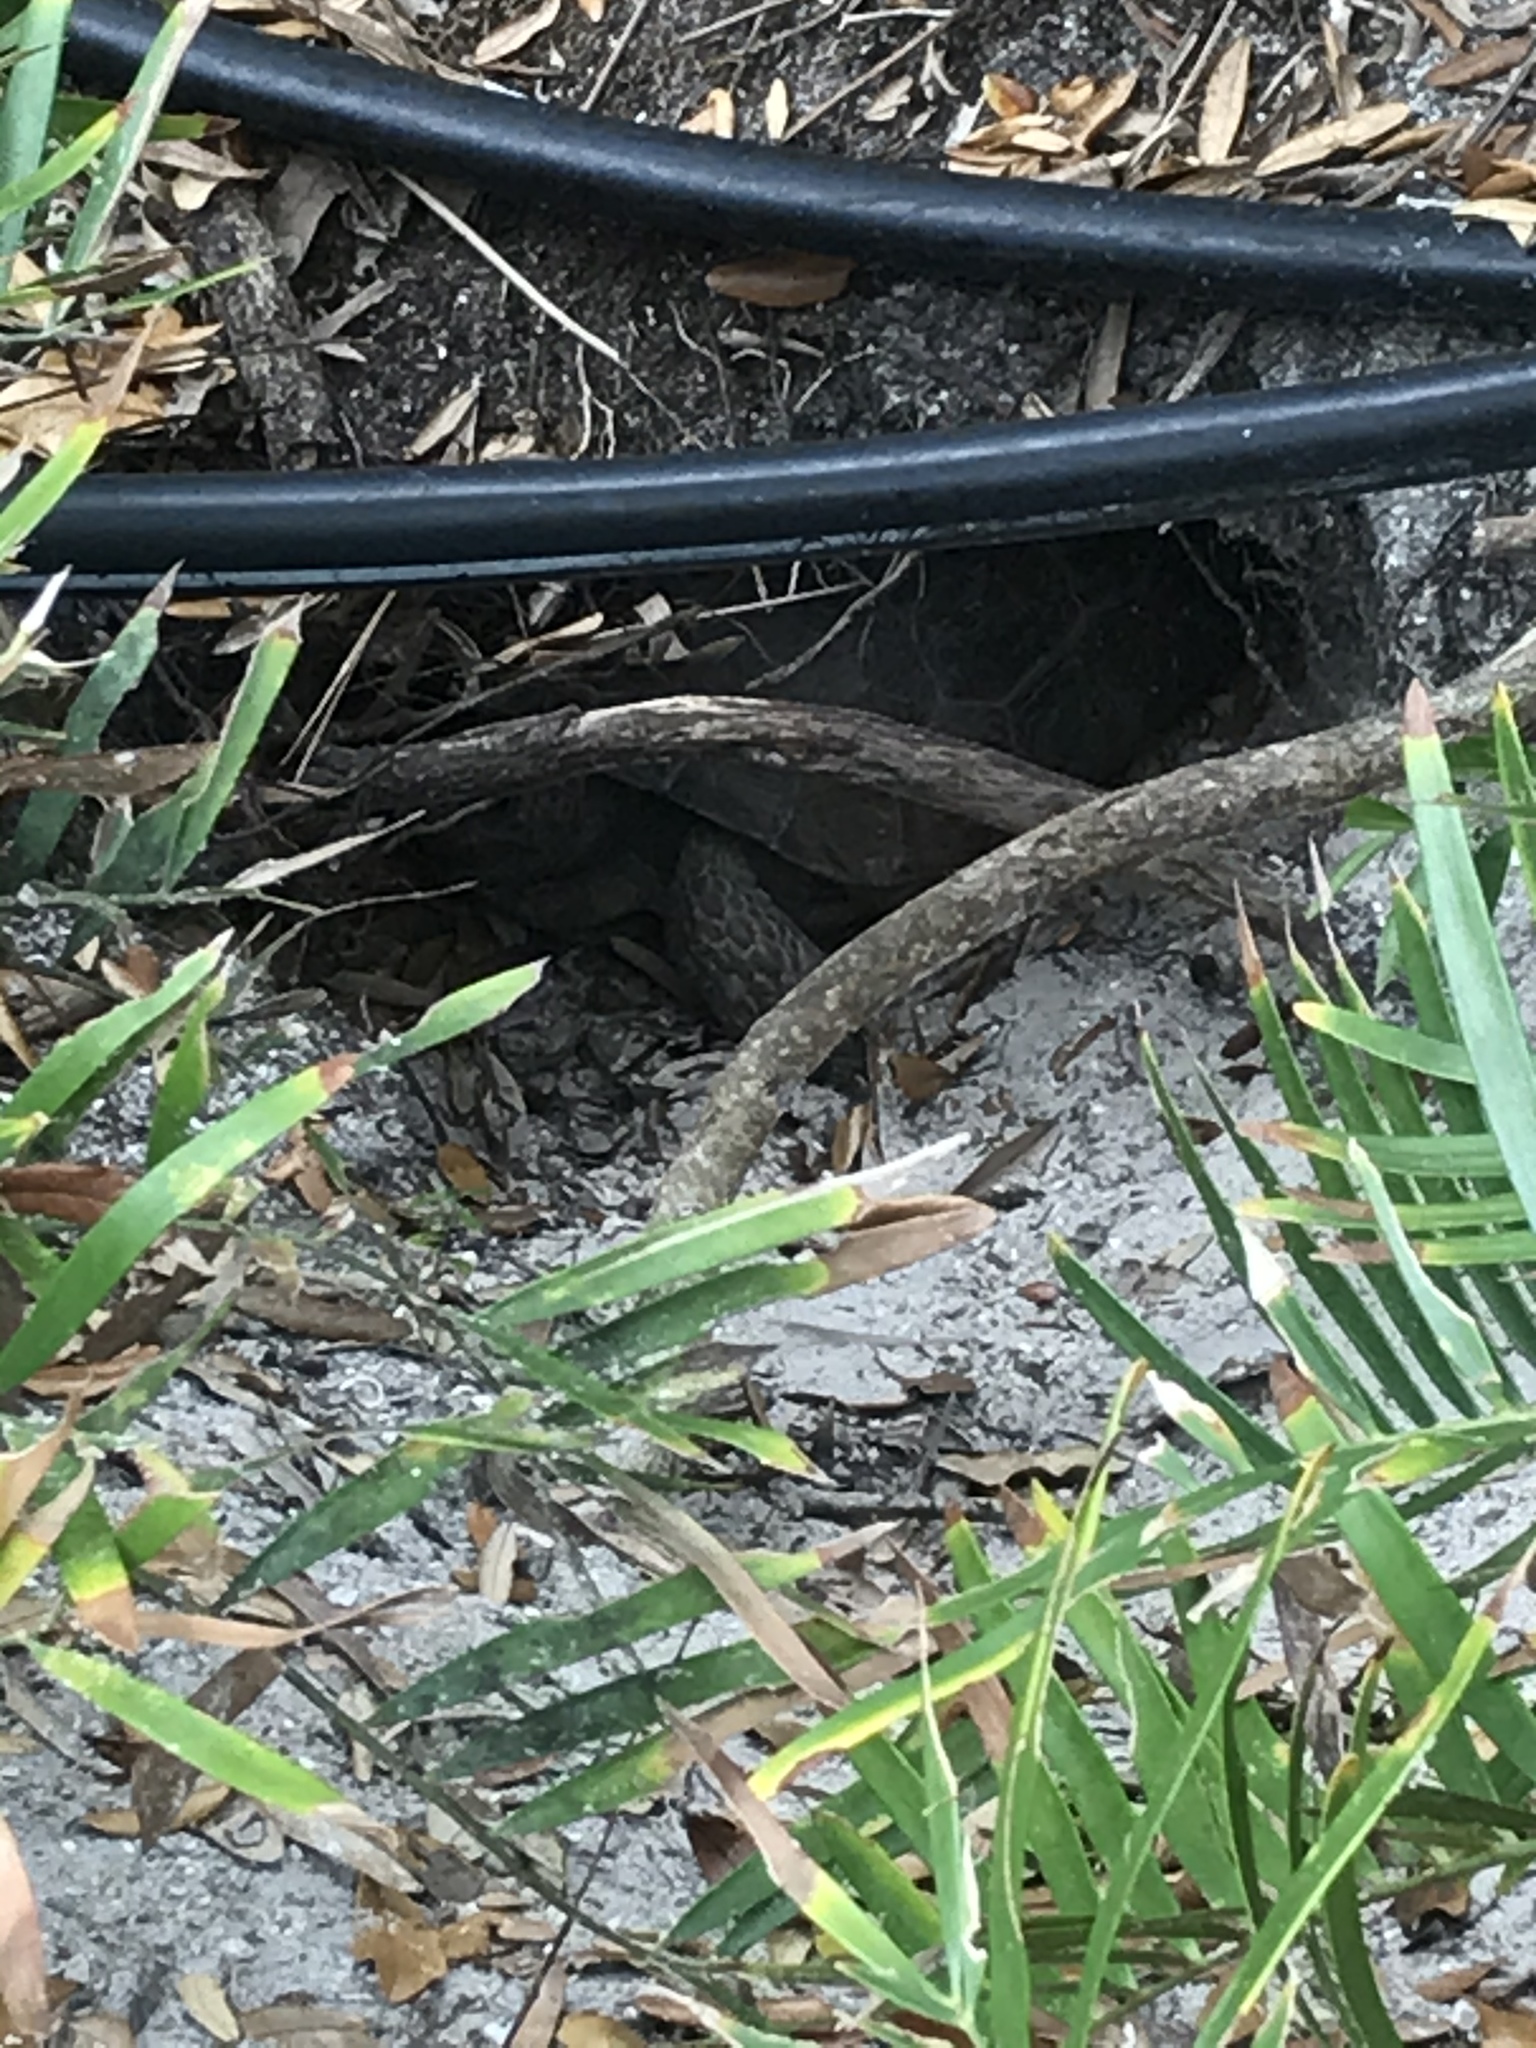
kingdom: Animalia
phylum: Chordata
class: Testudines
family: Testudinidae
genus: Gopherus
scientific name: Gopherus polyphemus
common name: Florida gopher tortoise
